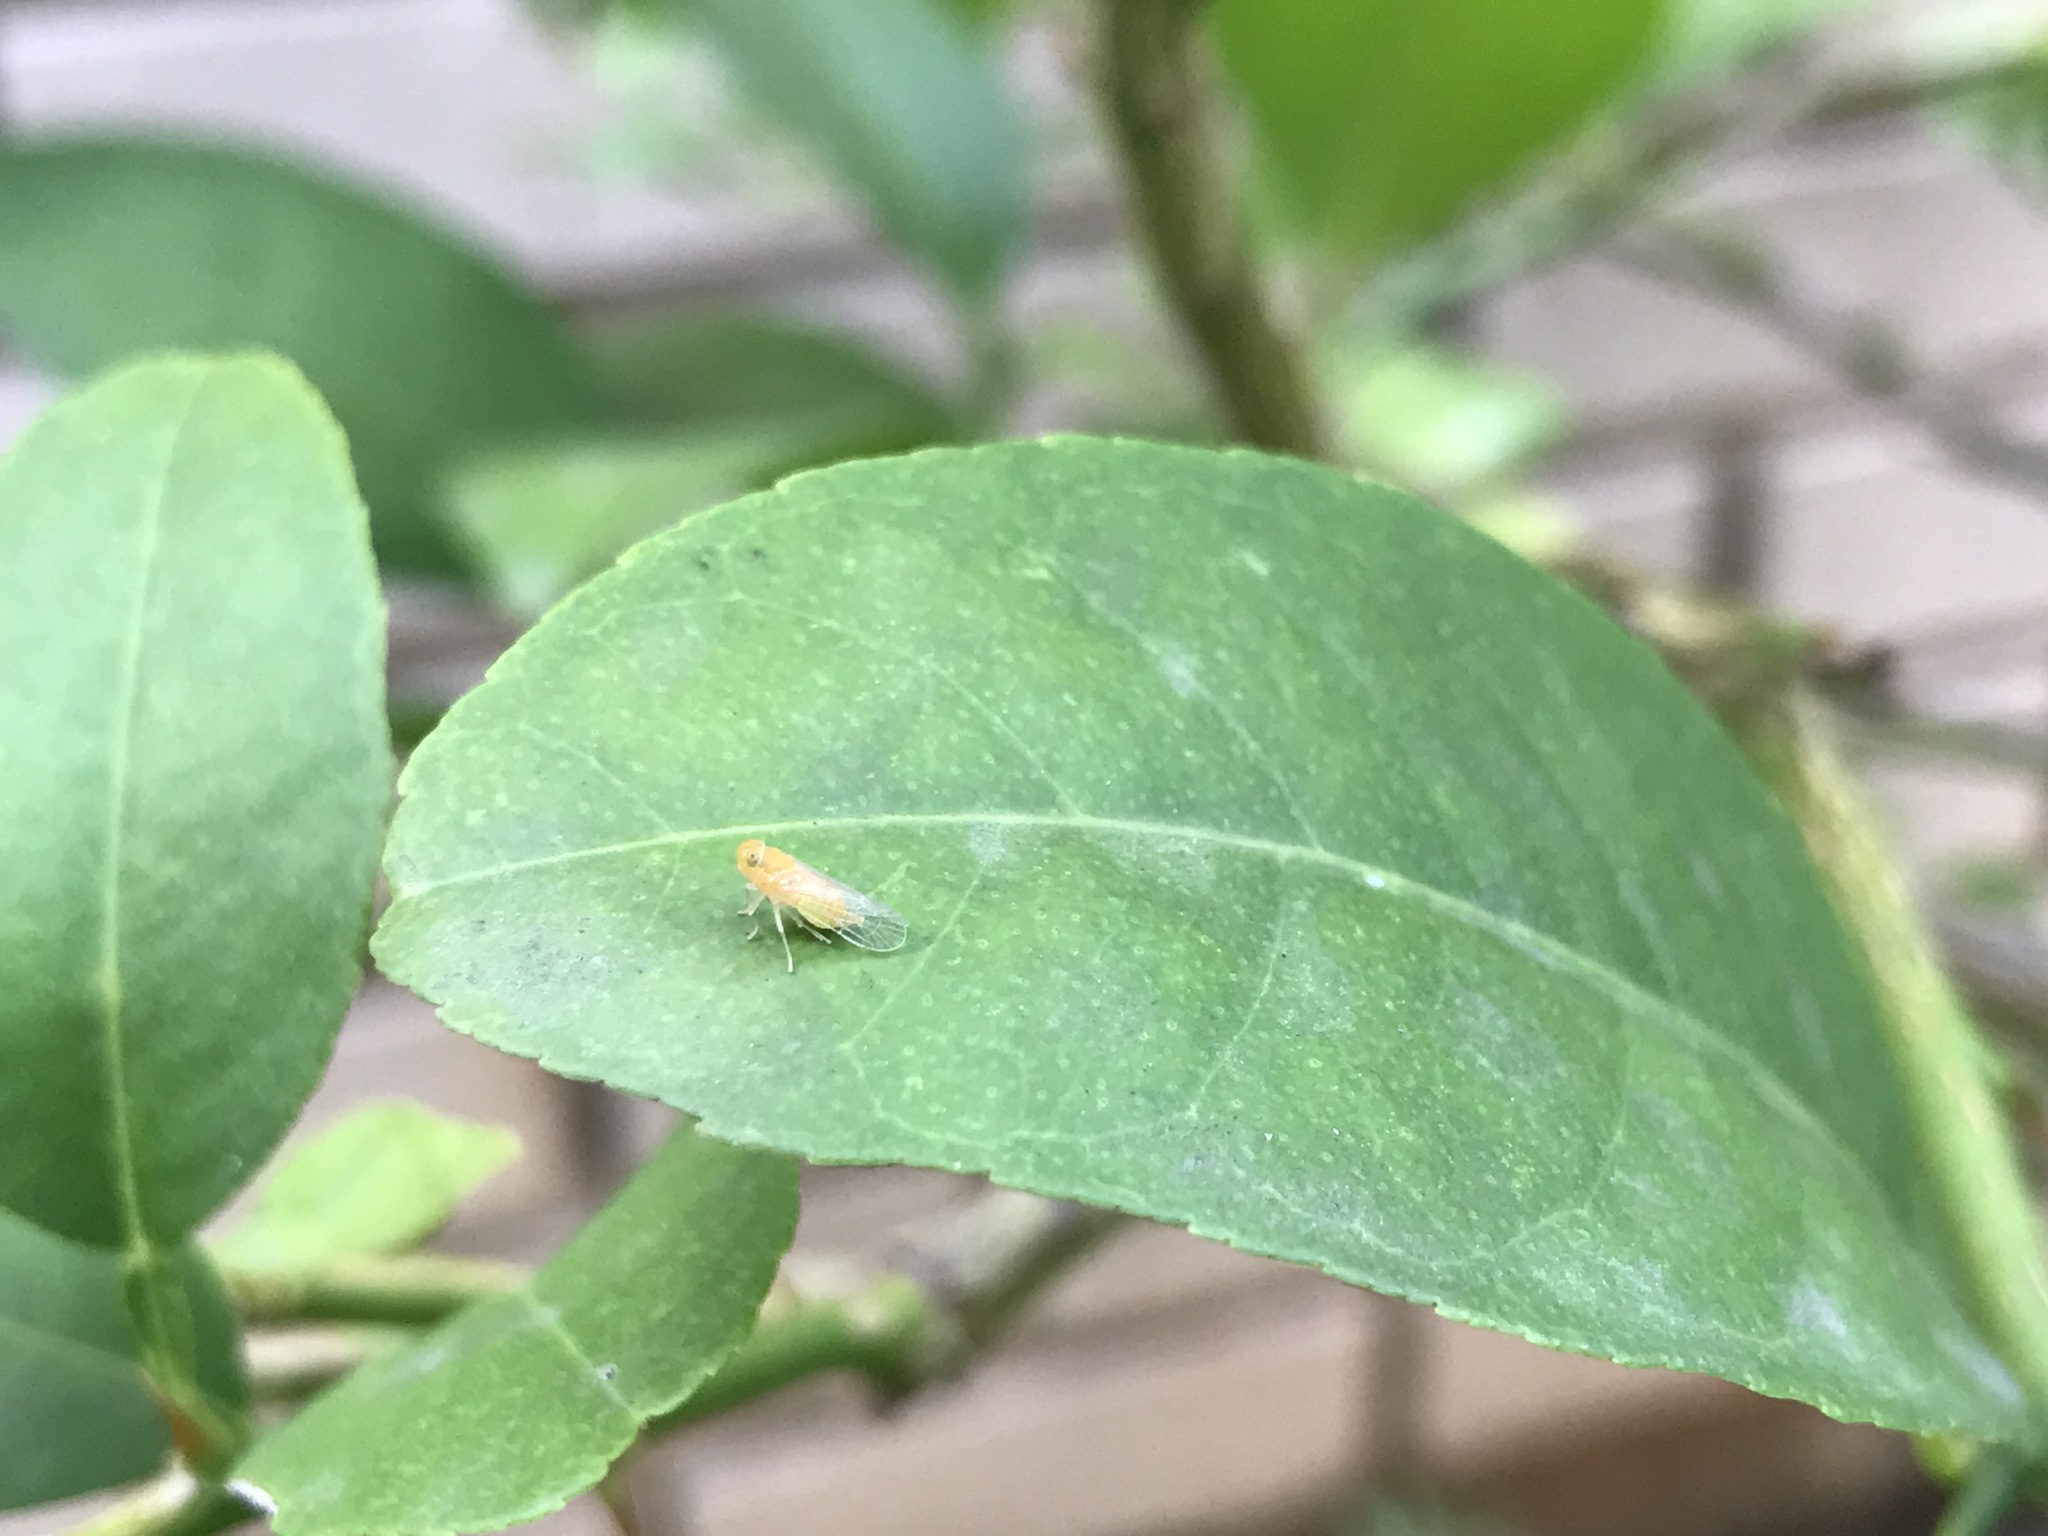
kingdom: Animalia
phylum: Arthropoda
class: Insecta
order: Hemiptera
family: Cixiidae
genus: Haplaxius
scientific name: Haplaxius crudus
